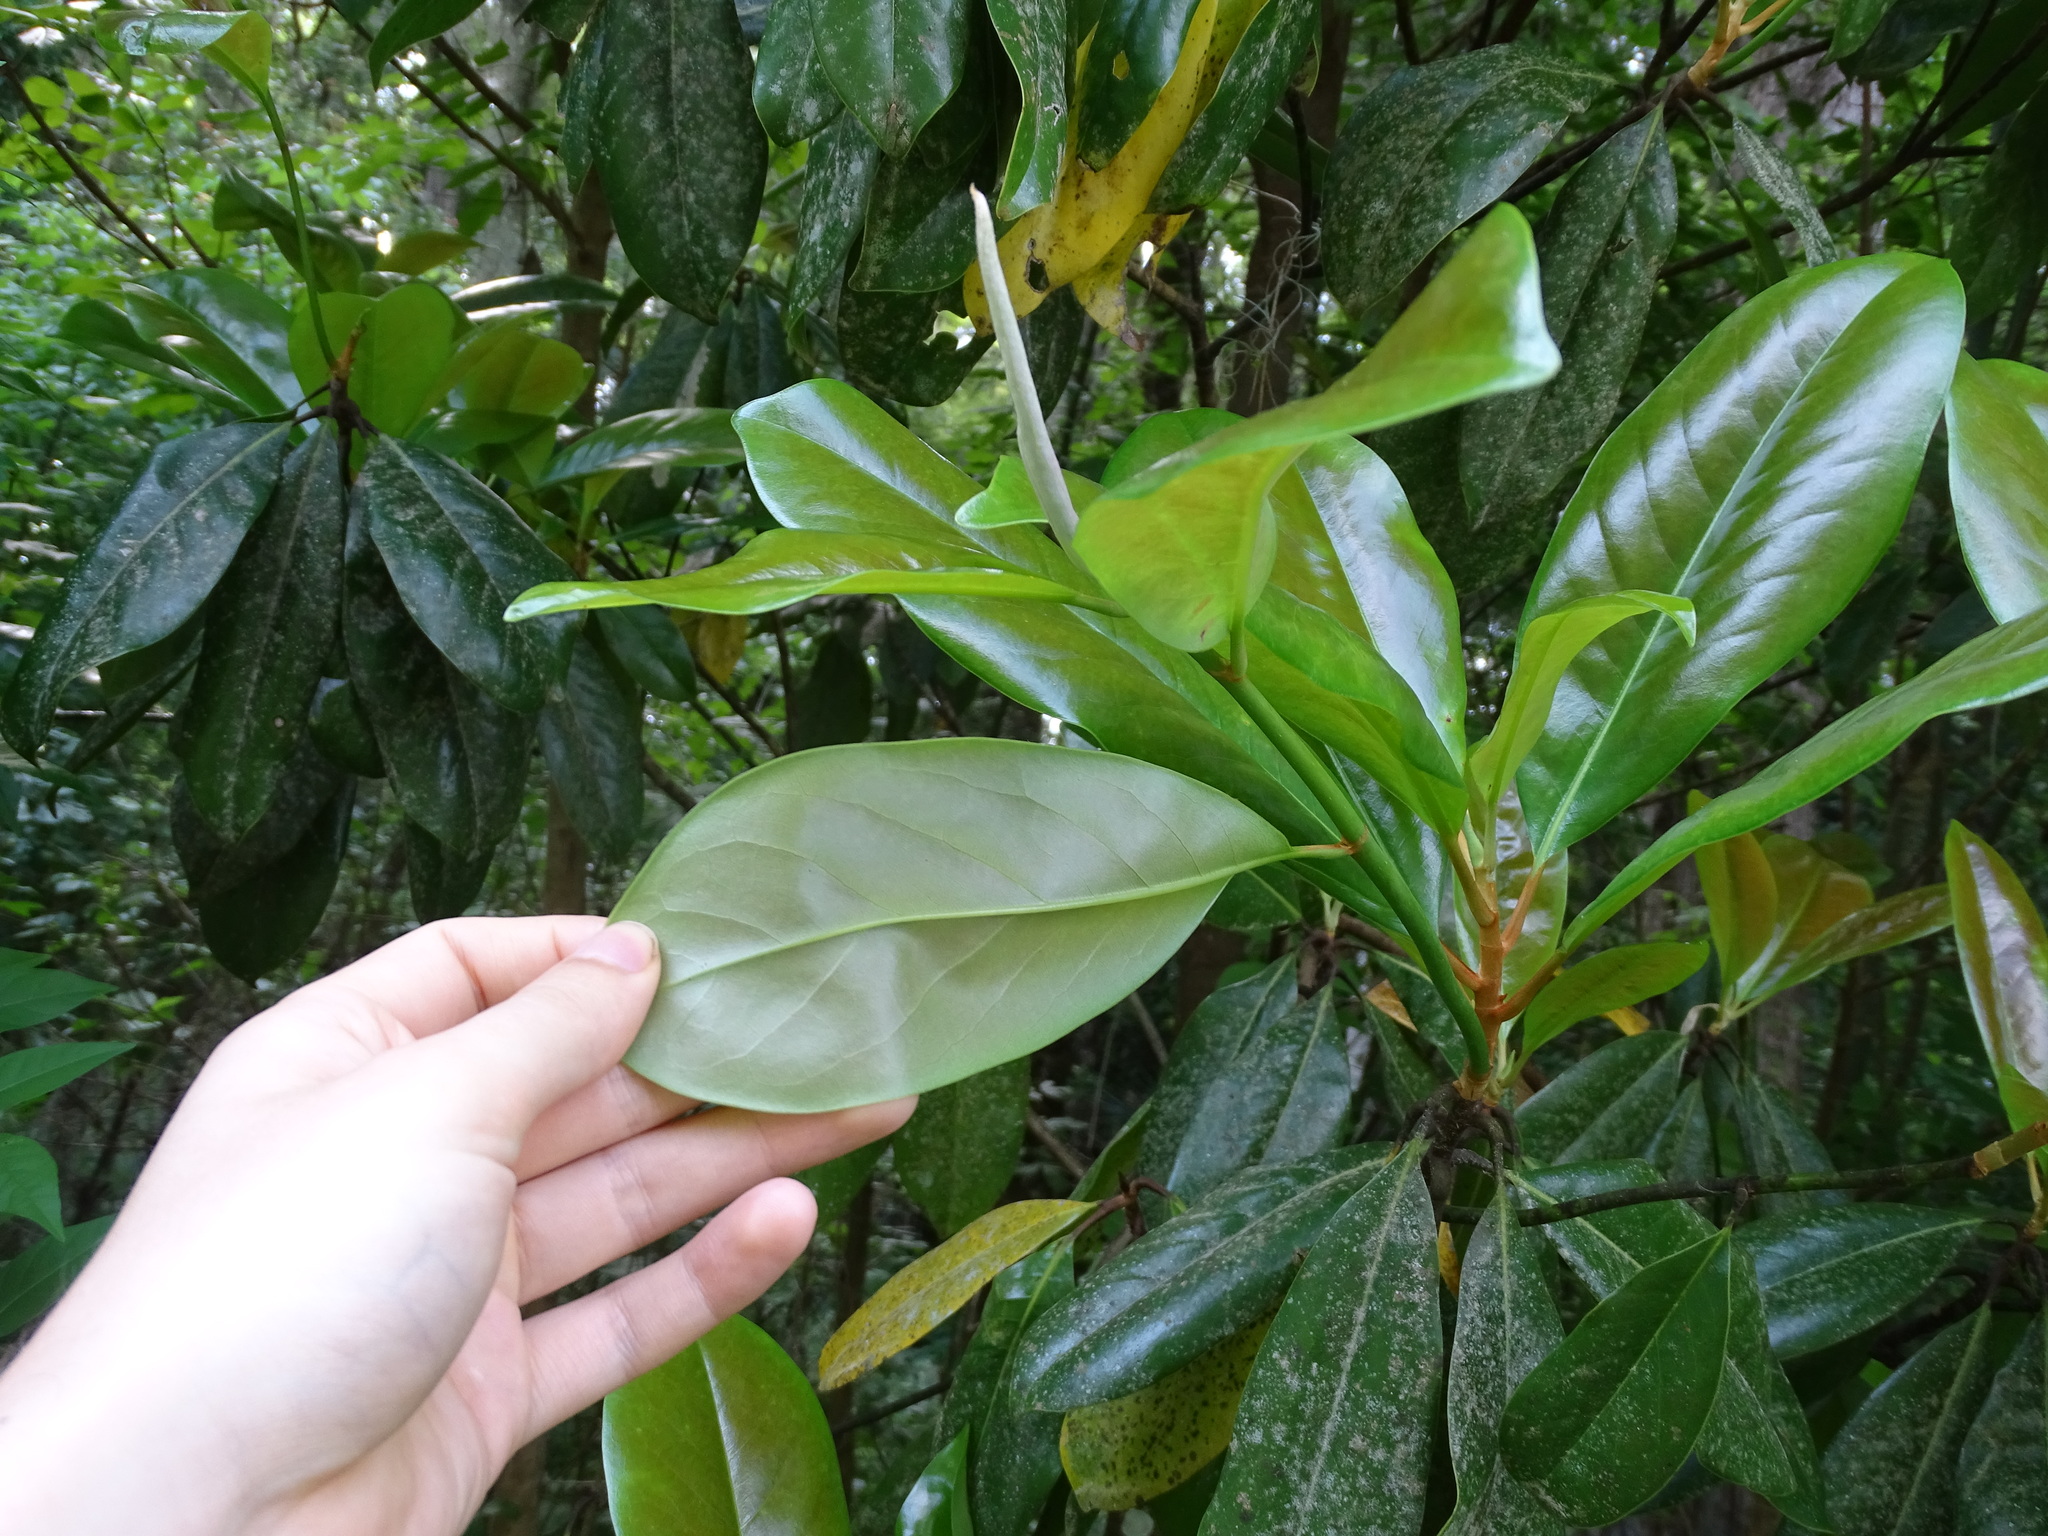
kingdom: Plantae
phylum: Tracheophyta
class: Magnoliopsida
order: Magnoliales
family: Magnoliaceae
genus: Magnolia
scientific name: Magnolia grandiflora
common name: Southern magnolia
